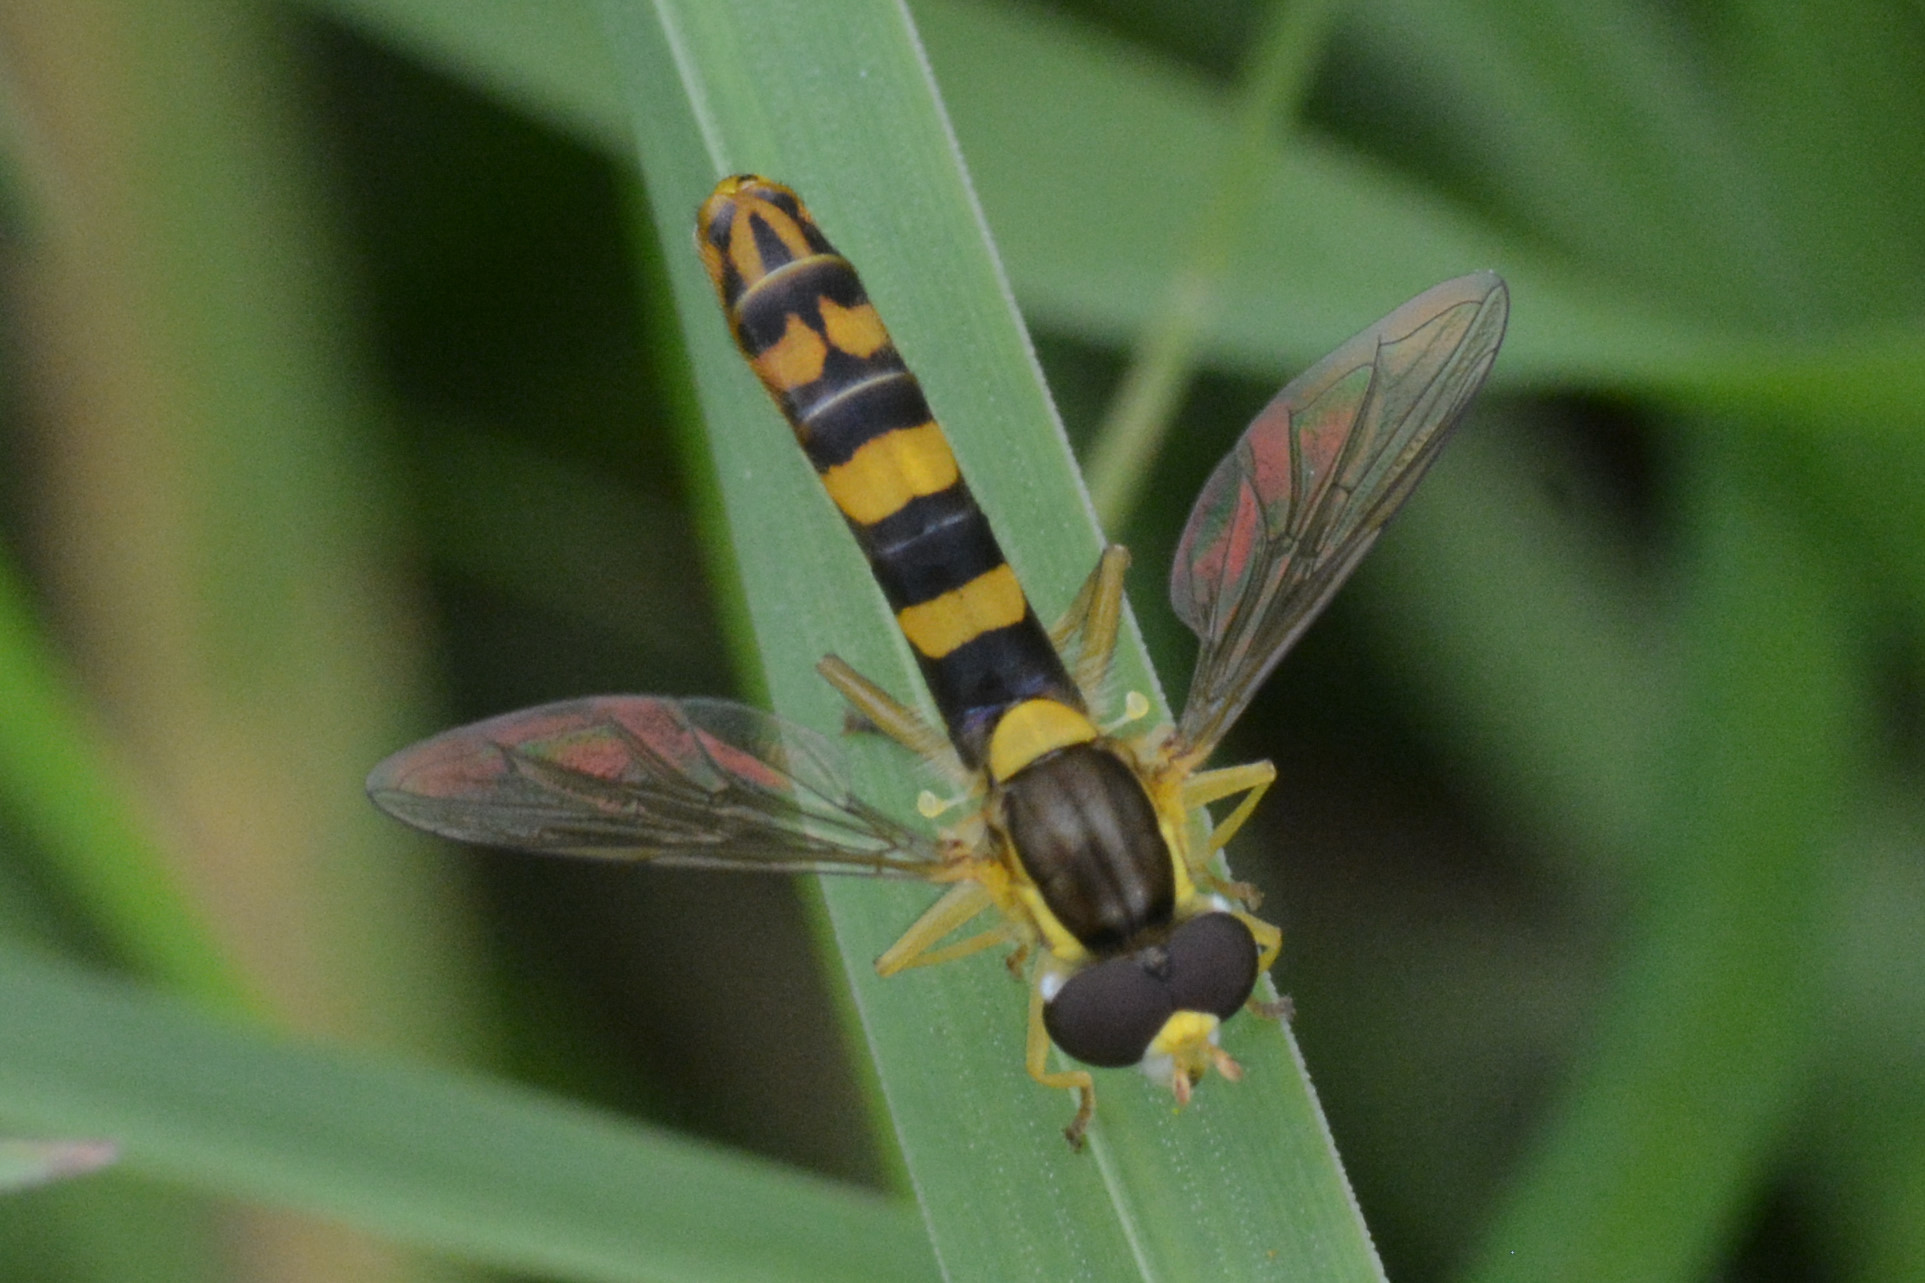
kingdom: Animalia
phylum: Arthropoda
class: Insecta
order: Diptera
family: Syrphidae
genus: Sphaerophoria
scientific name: Sphaerophoria scripta
